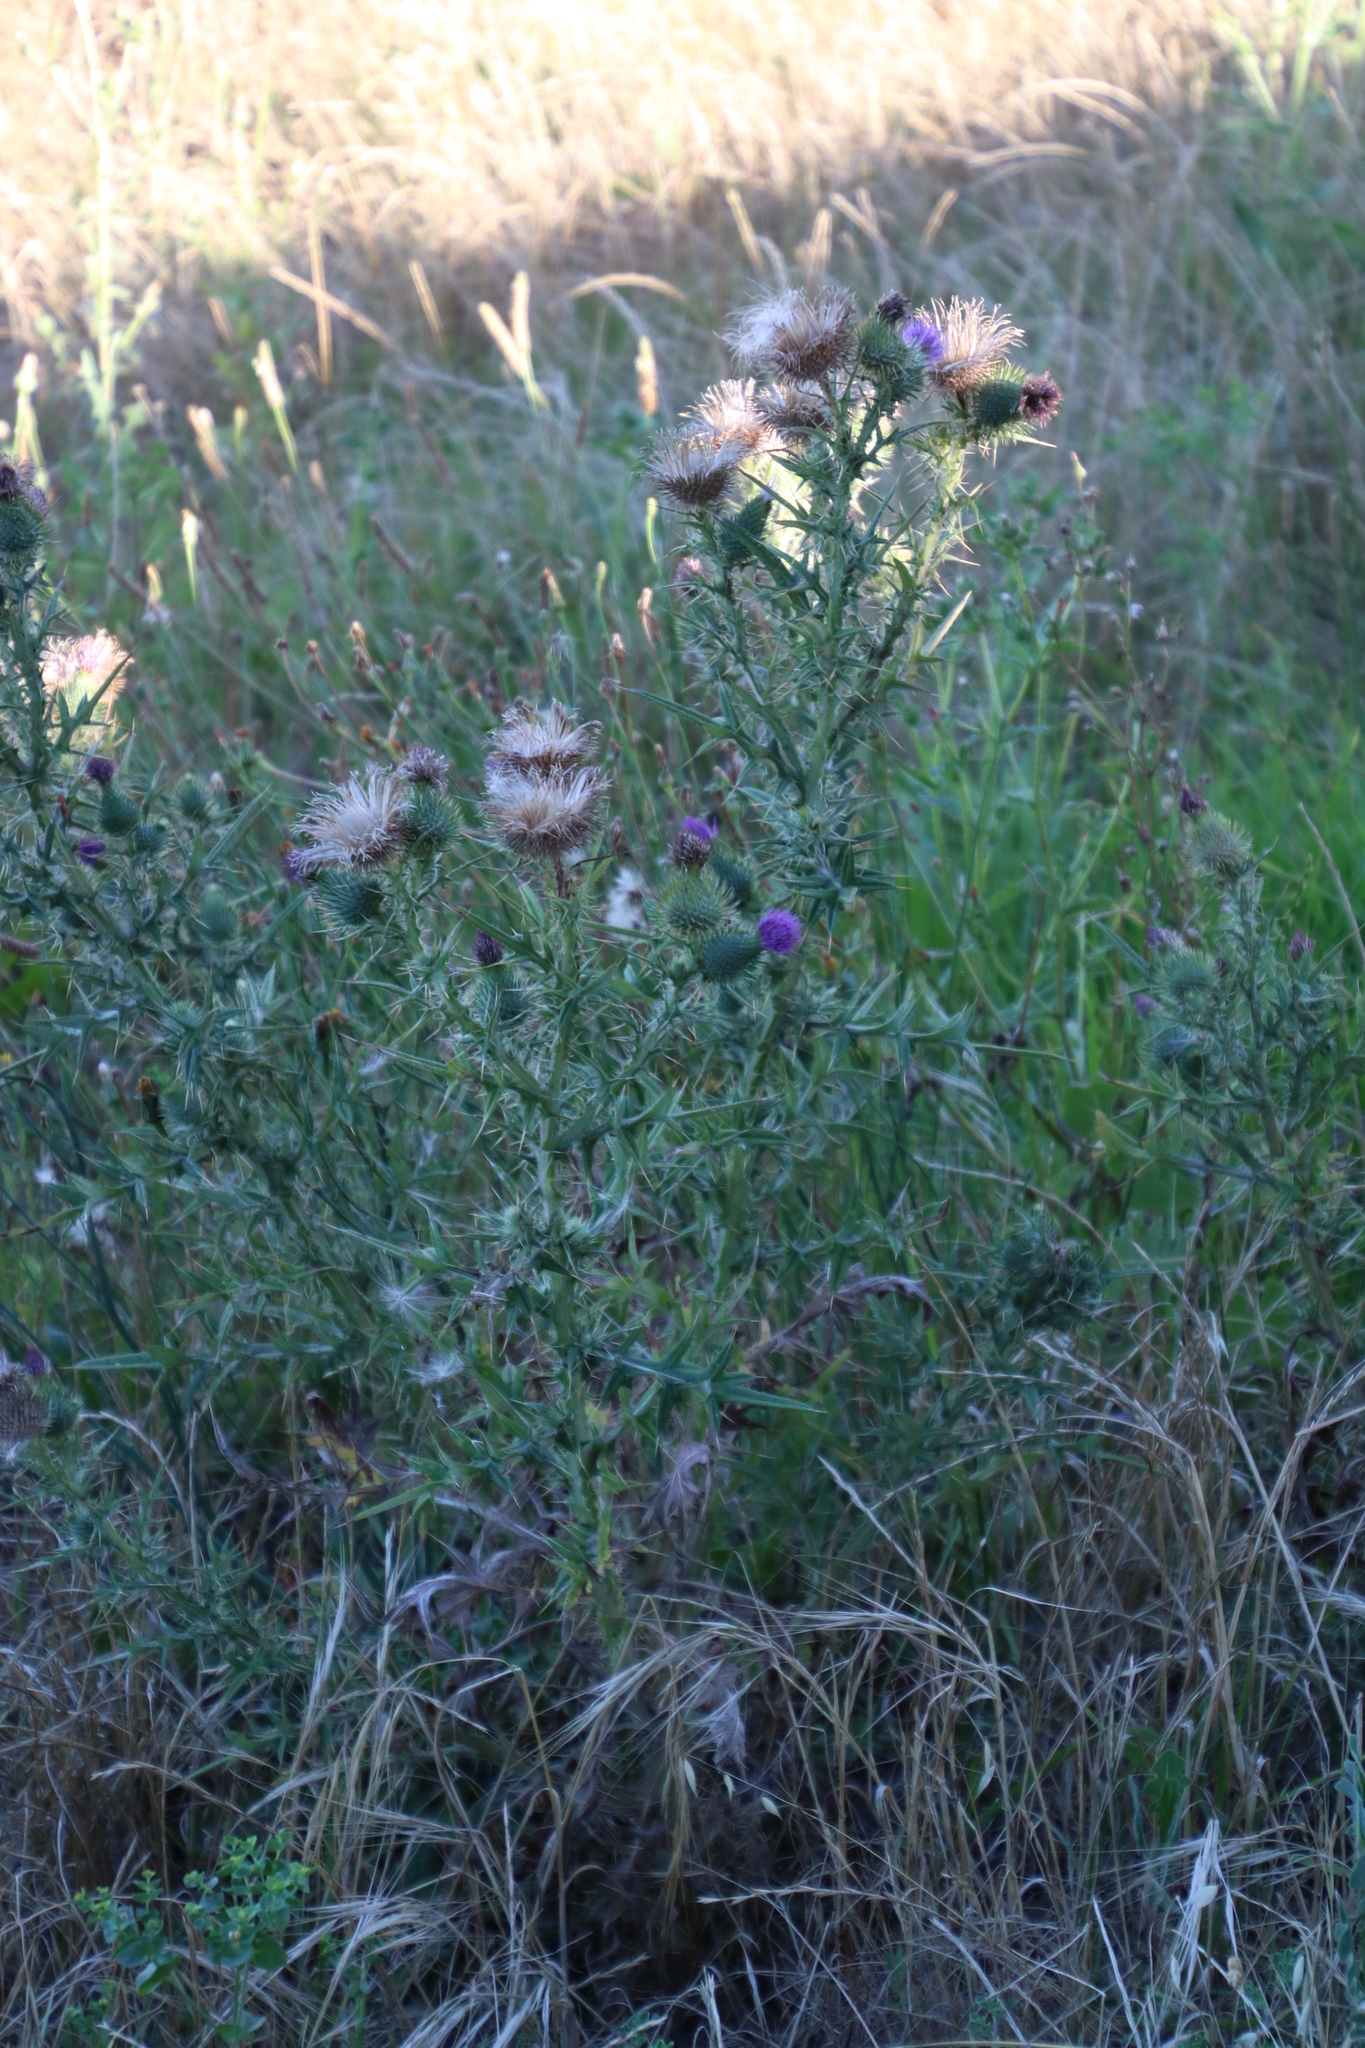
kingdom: Plantae
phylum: Tracheophyta
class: Magnoliopsida
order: Asterales
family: Asteraceae
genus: Cirsium
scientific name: Cirsium vulgare
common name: Bull thistle
